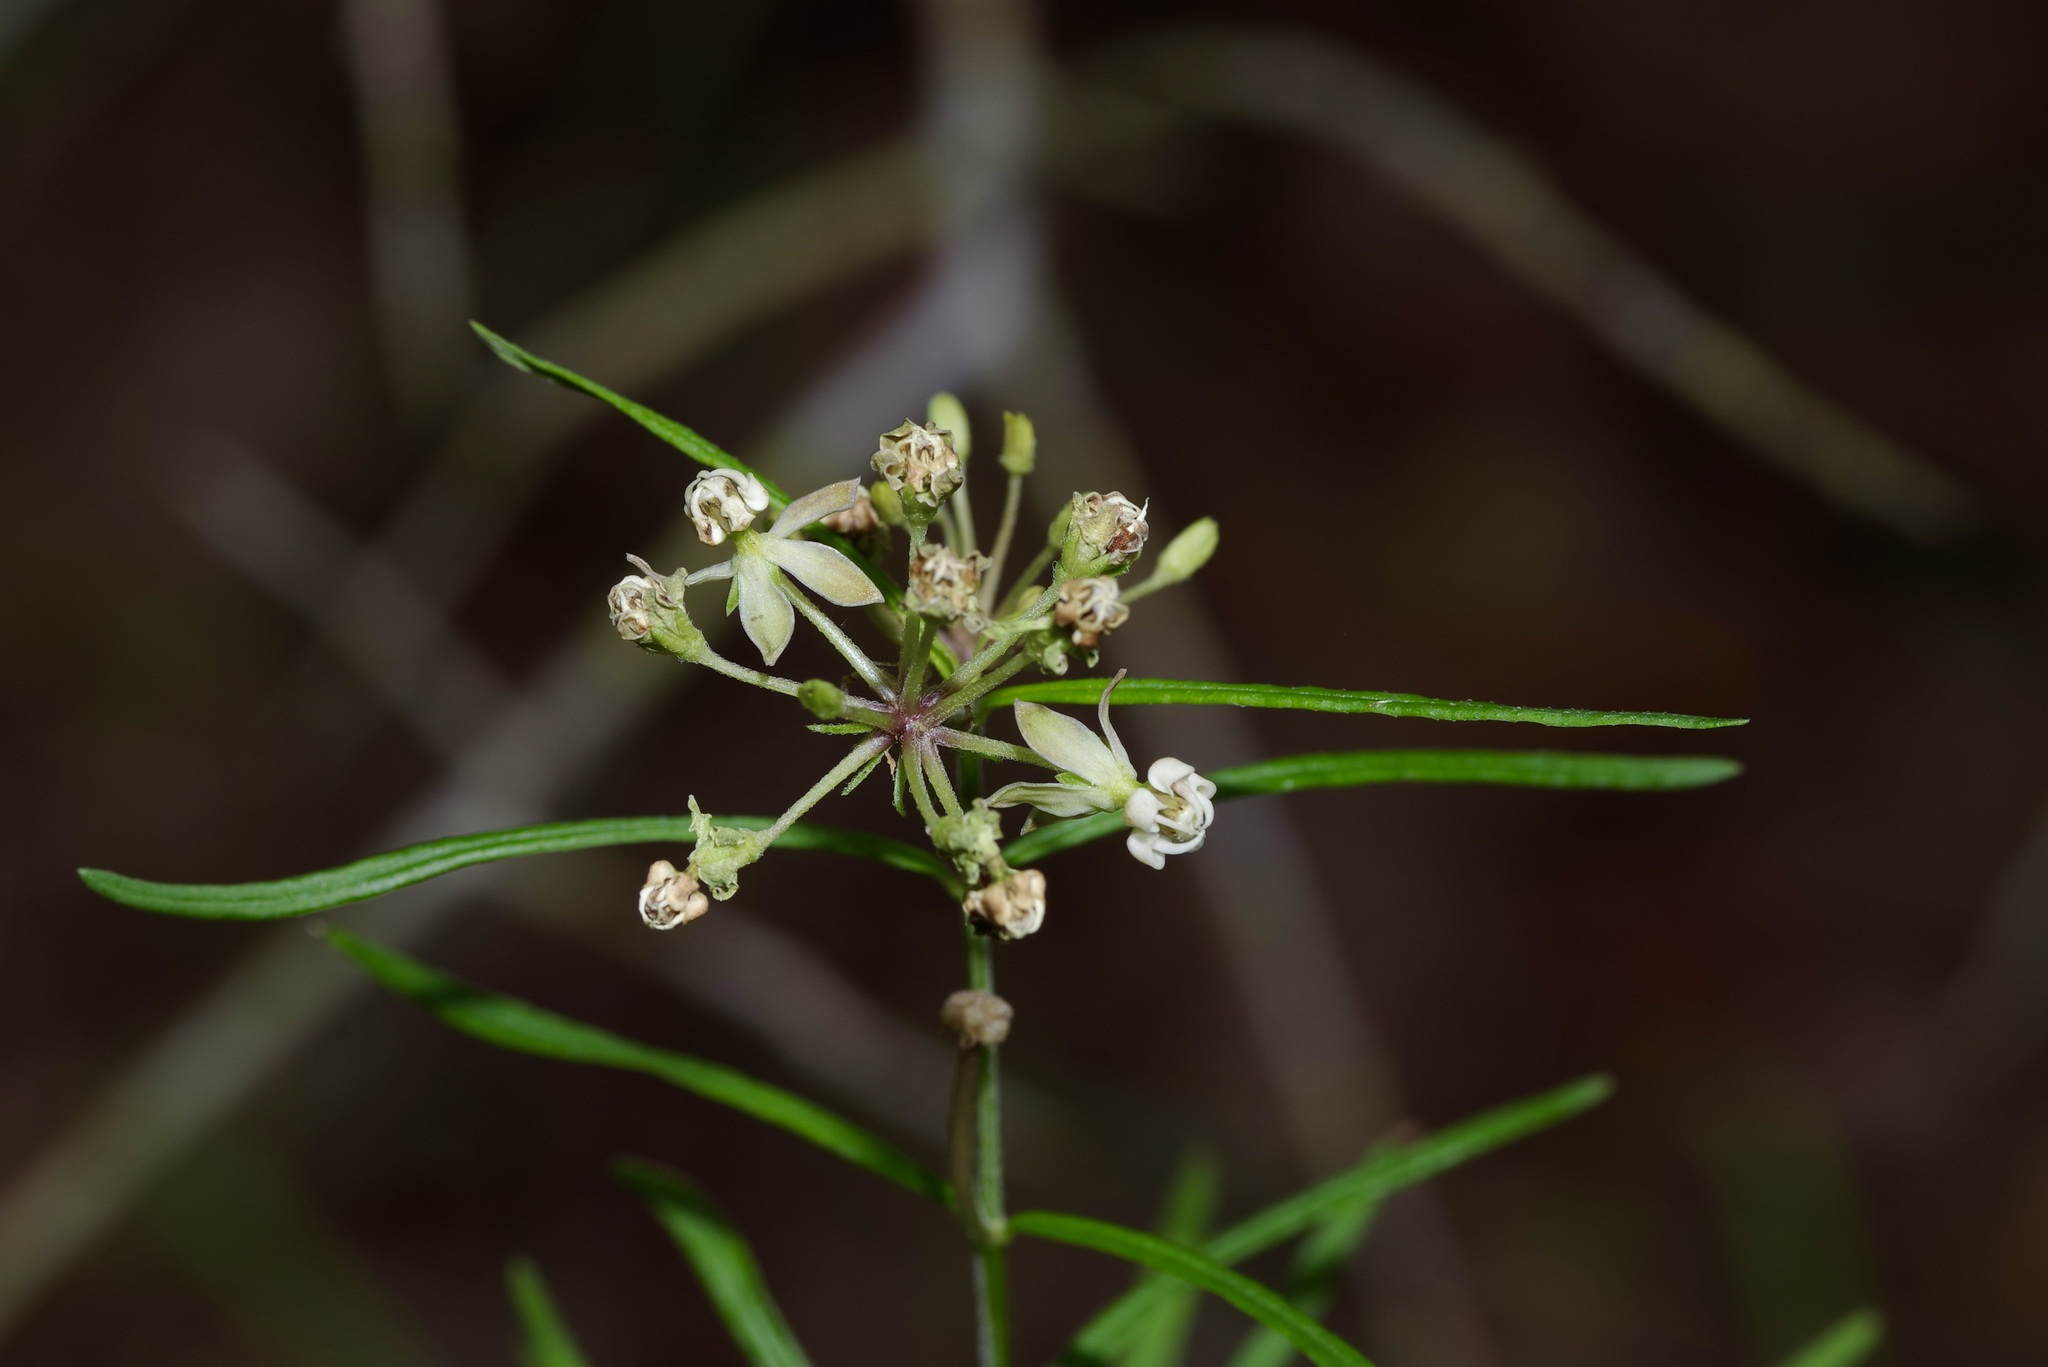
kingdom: Plantae
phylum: Tracheophyta
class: Magnoliopsida
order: Gentianales
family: Apocynaceae
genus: Asclepias
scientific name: Asclepias verticillata
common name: Eastern whorled milkweed
